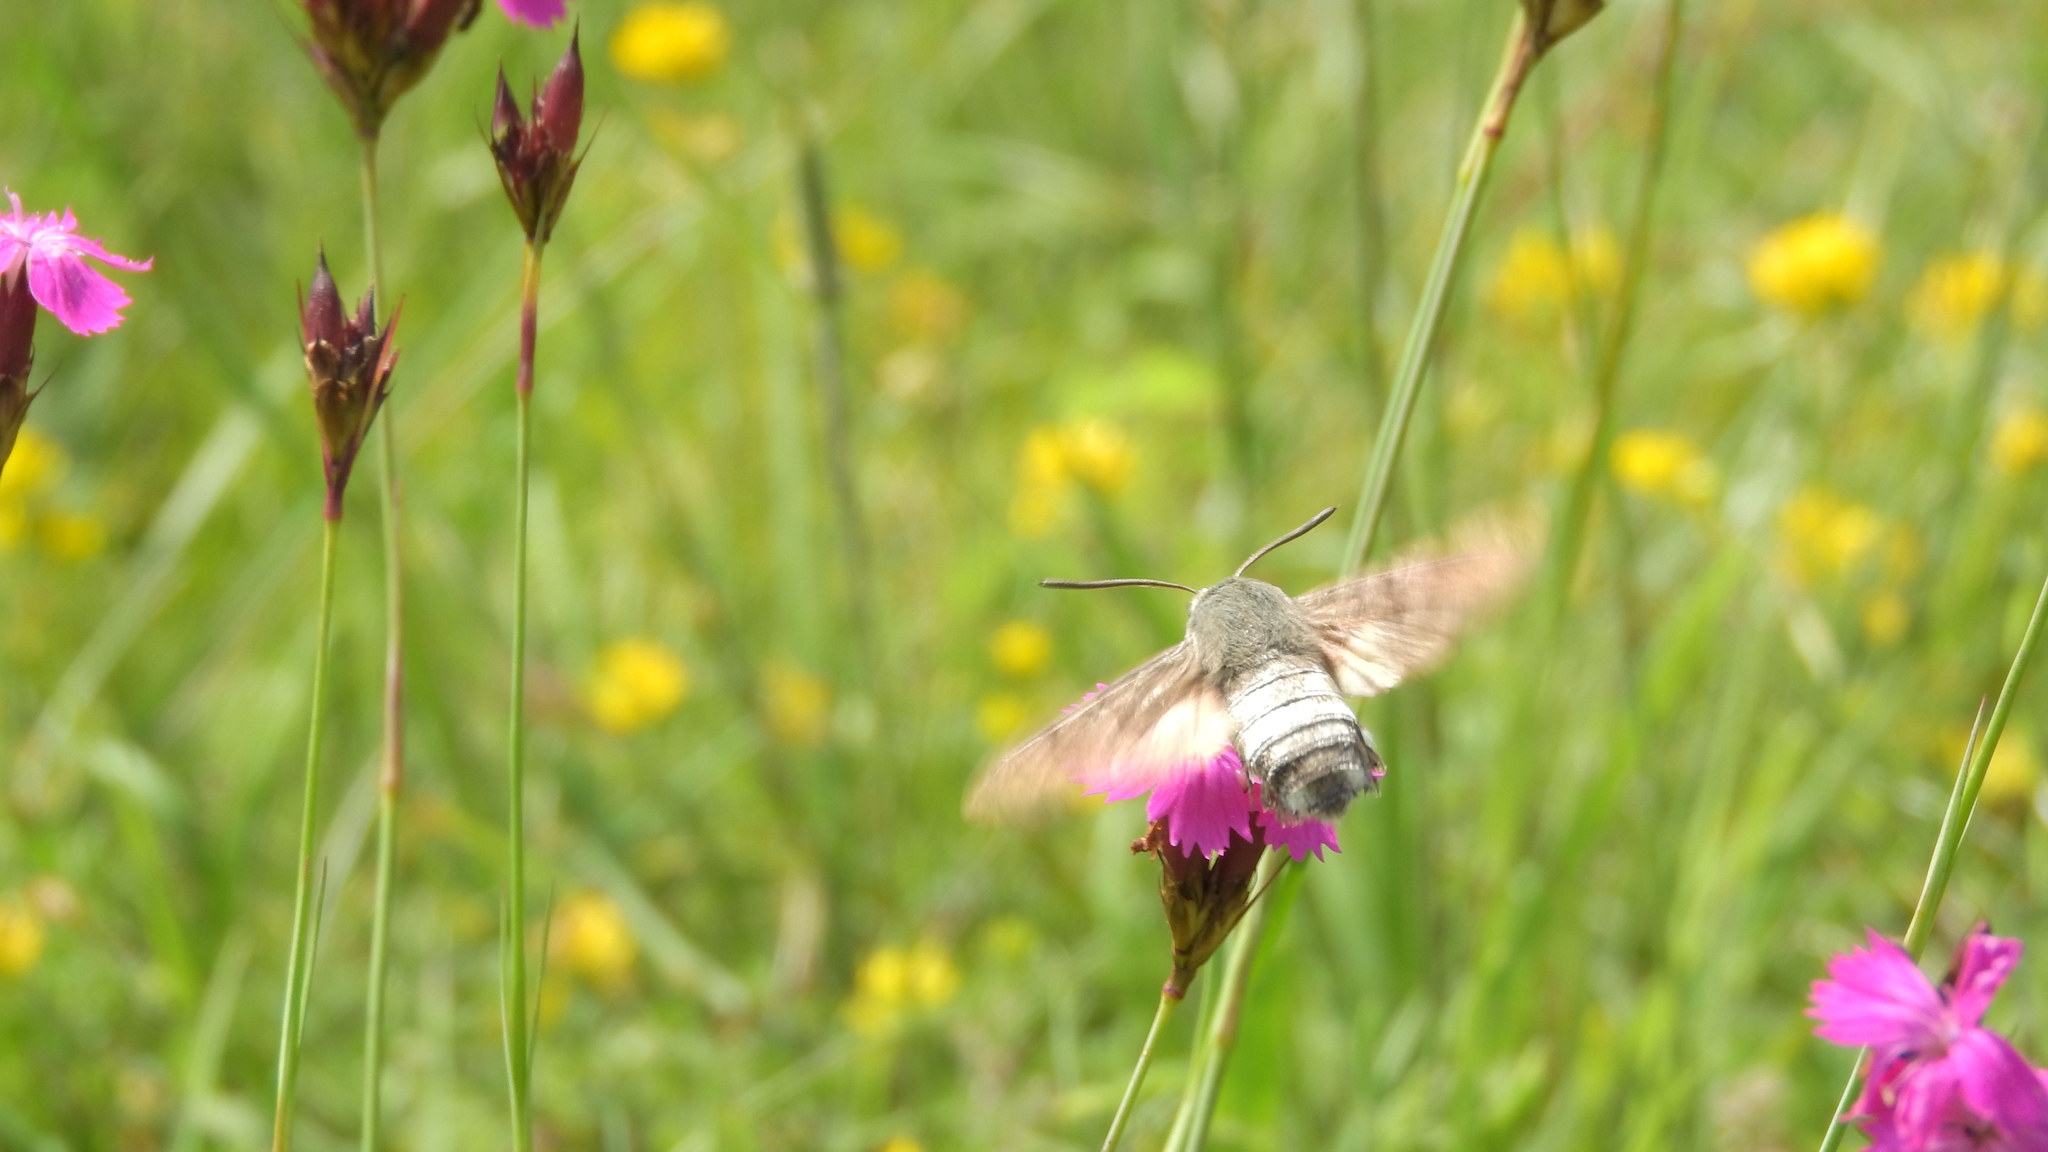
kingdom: Animalia
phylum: Arthropoda
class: Insecta
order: Lepidoptera
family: Sphingidae
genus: Macroglossum
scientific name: Macroglossum stellatarum
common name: Humming-bird hawk-moth
